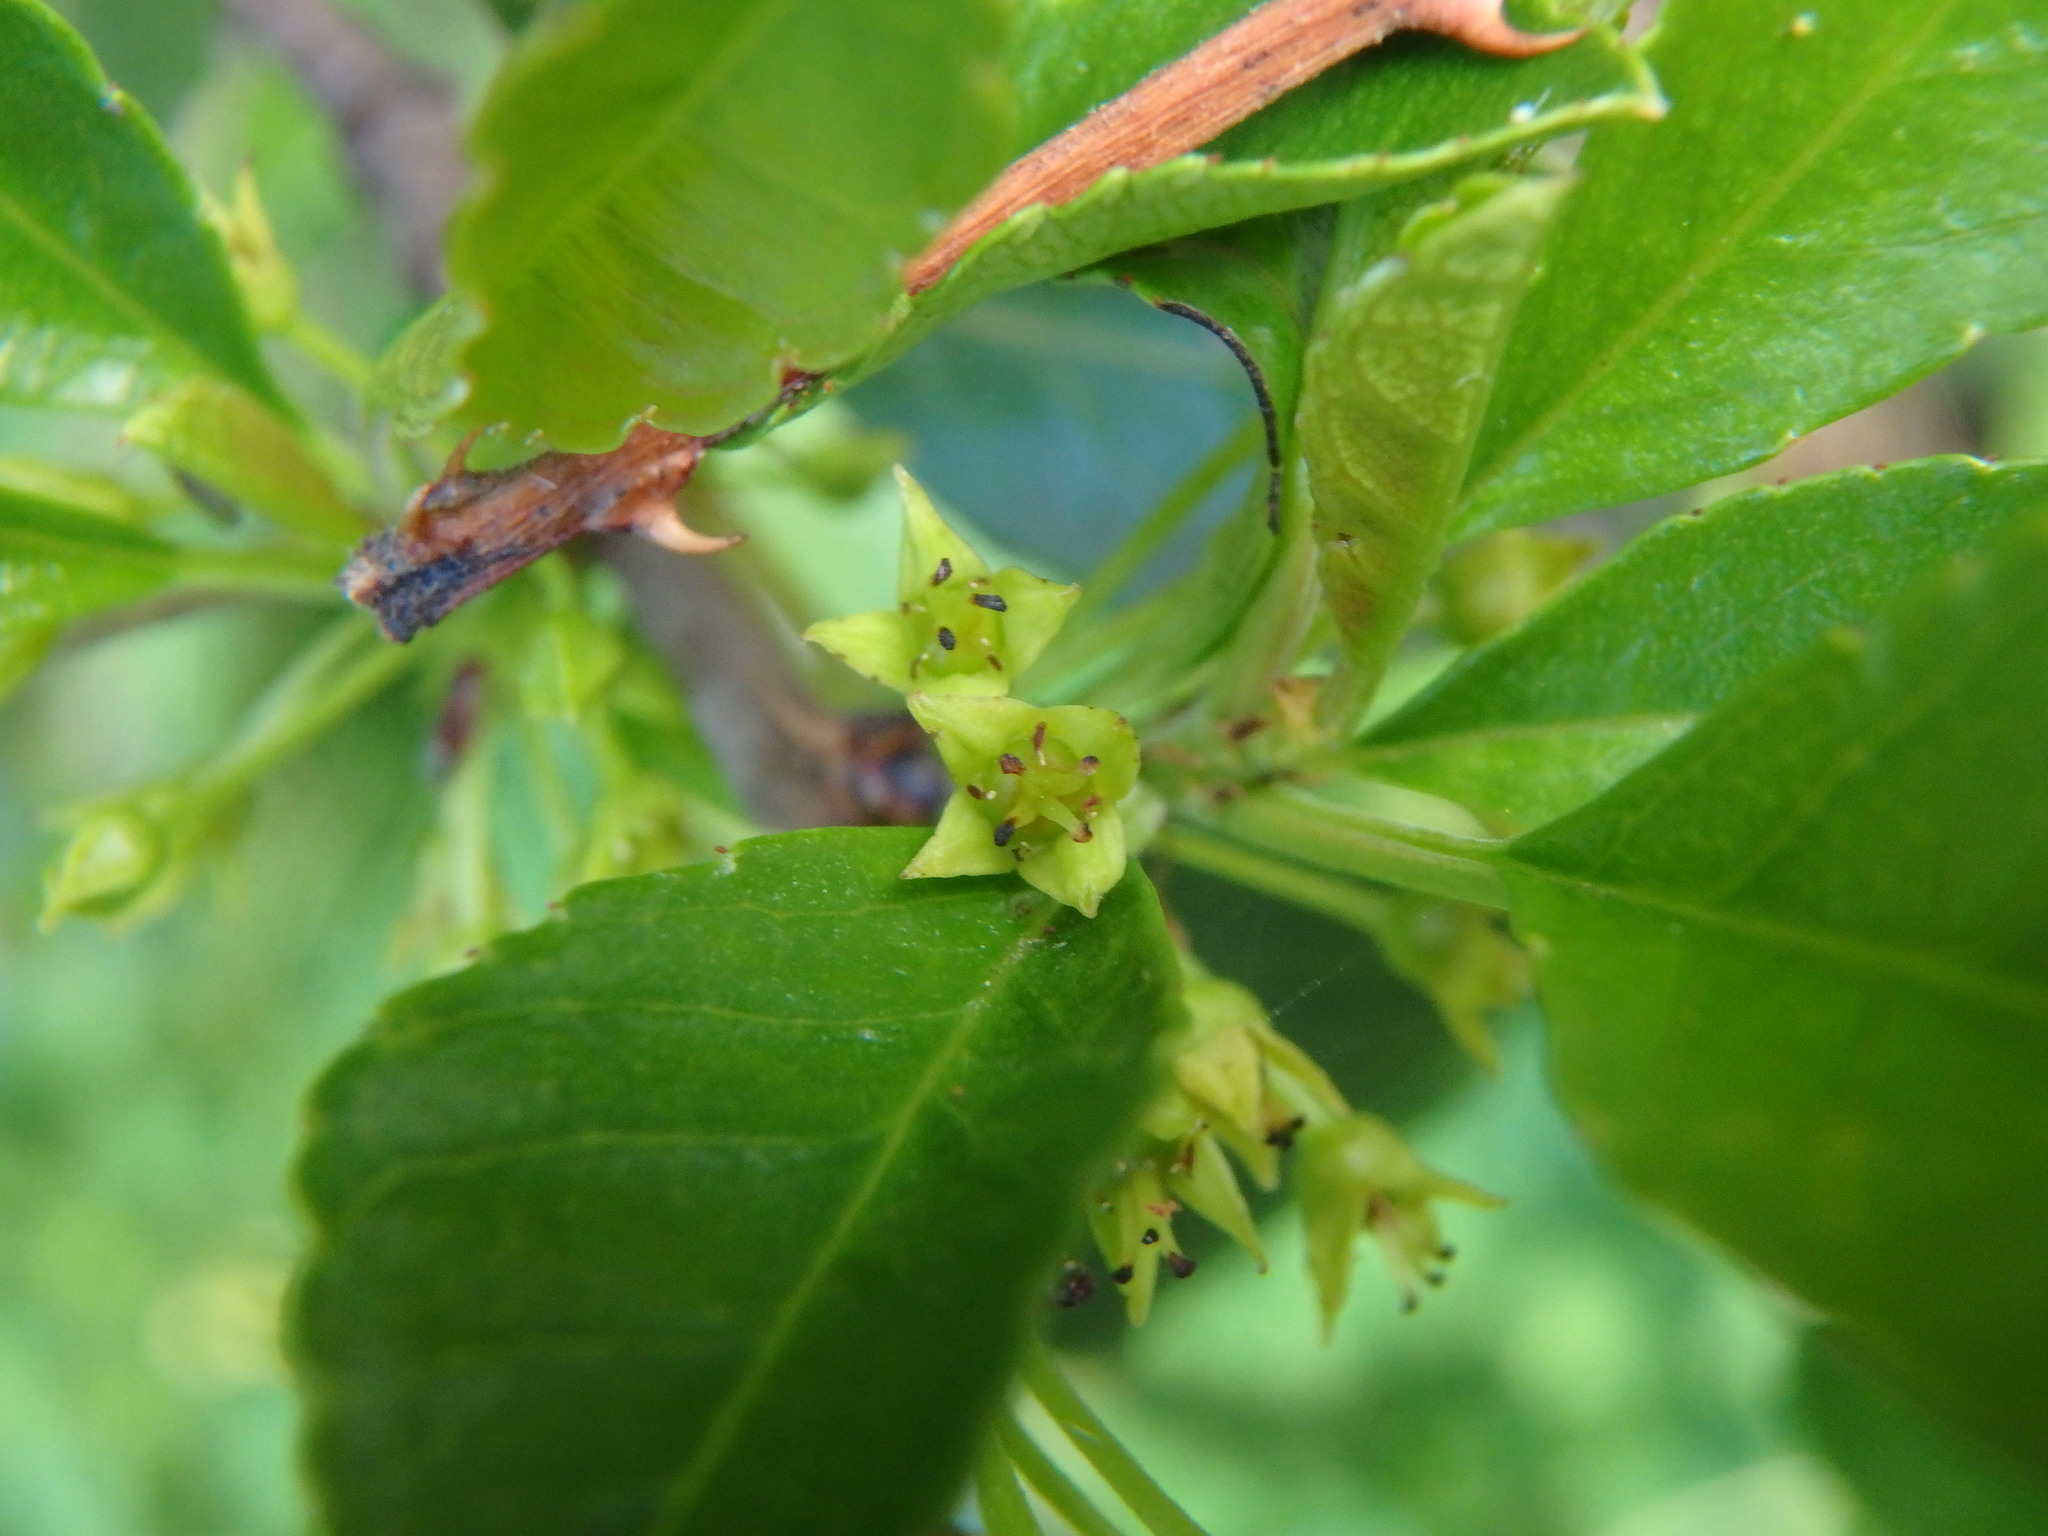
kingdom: Plantae
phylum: Tracheophyta
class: Magnoliopsida
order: Rosales
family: Rhamnaceae
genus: Rhamnus
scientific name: Rhamnus crenulata
